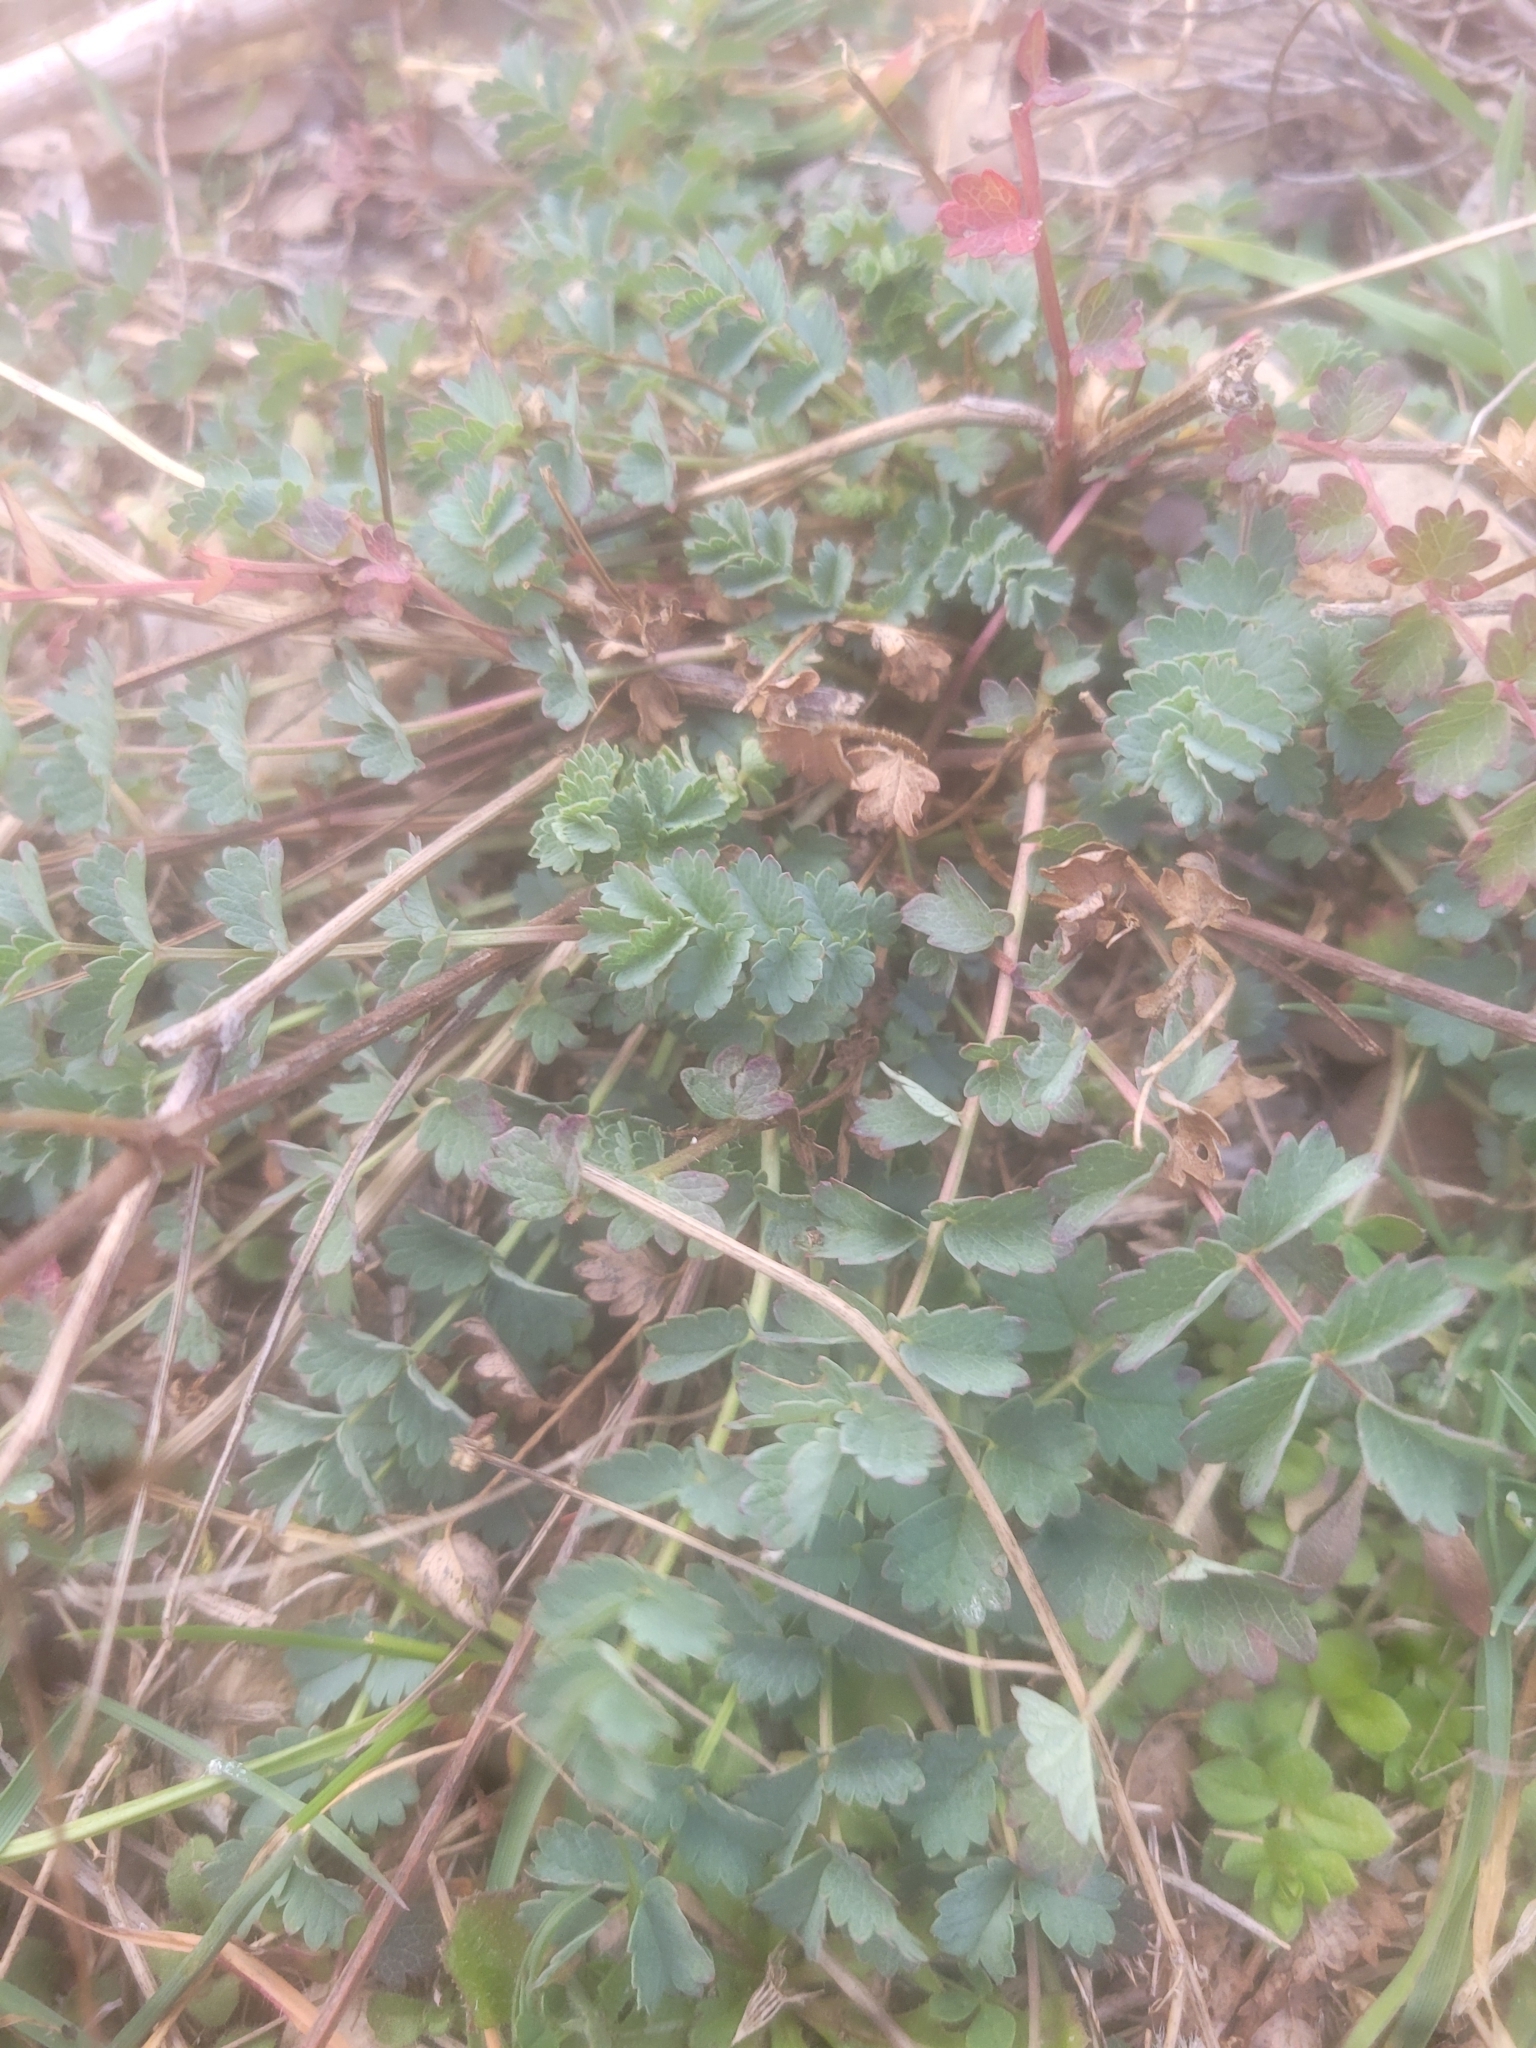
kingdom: Plantae
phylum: Tracheophyta
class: Magnoliopsida
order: Rosales
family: Rosaceae
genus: Poterium
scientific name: Poterium sanguisorba
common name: Salad burnet
